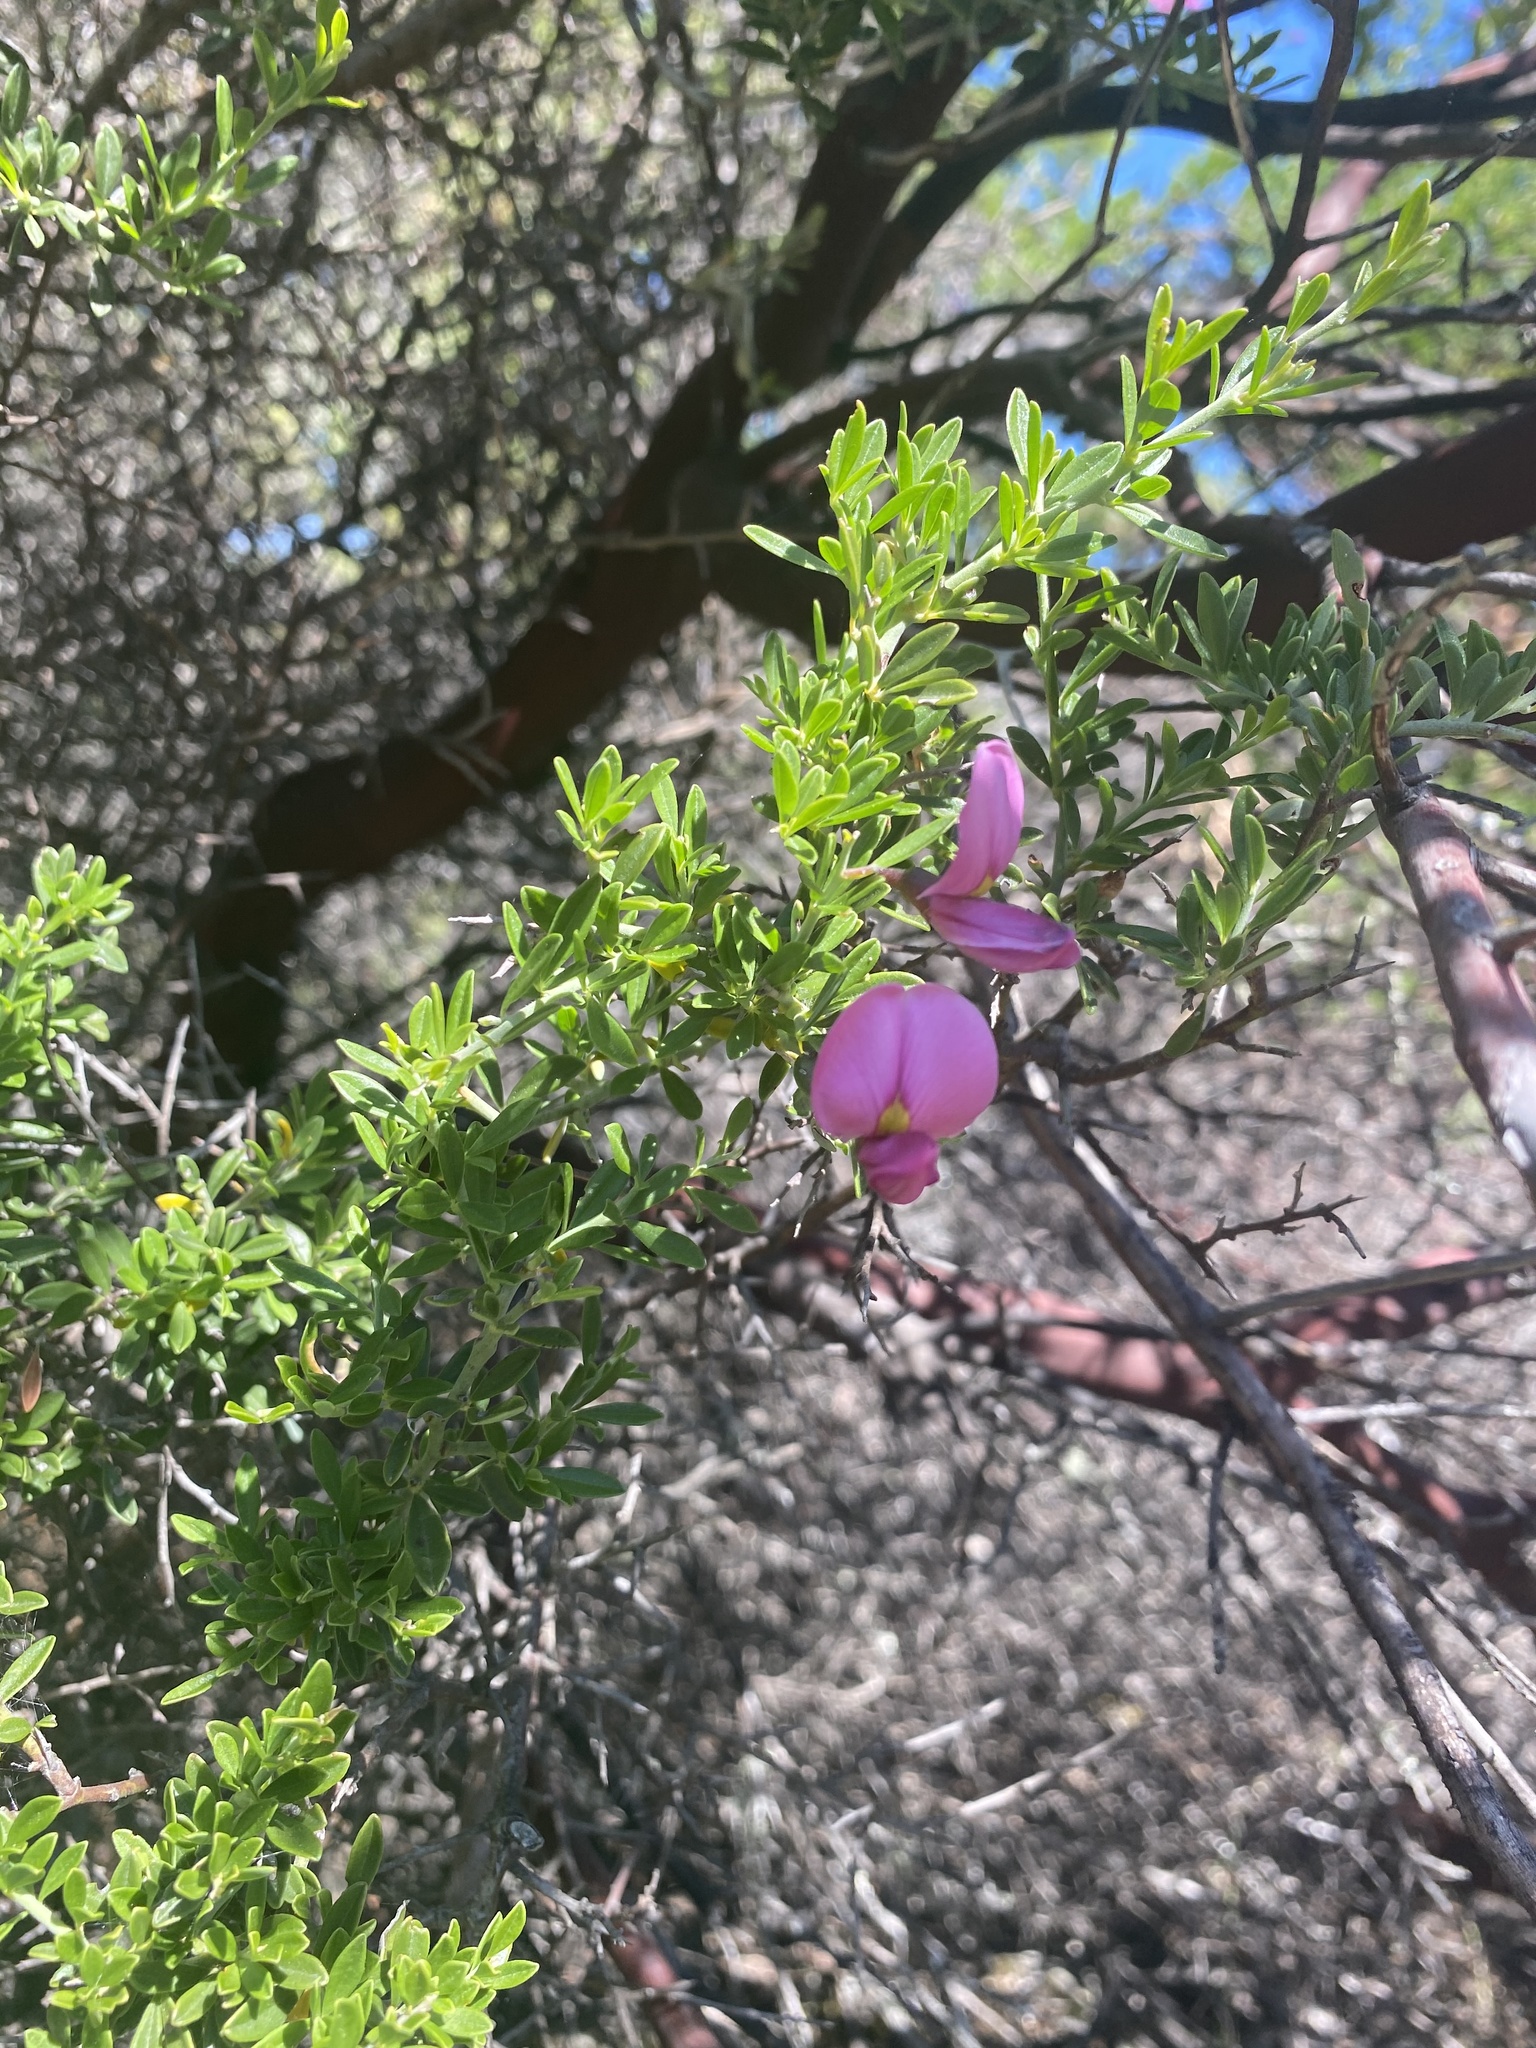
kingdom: Plantae
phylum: Tracheophyta
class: Magnoliopsida
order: Fabales
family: Fabaceae
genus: Pickeringia
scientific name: Pickeringia montana
